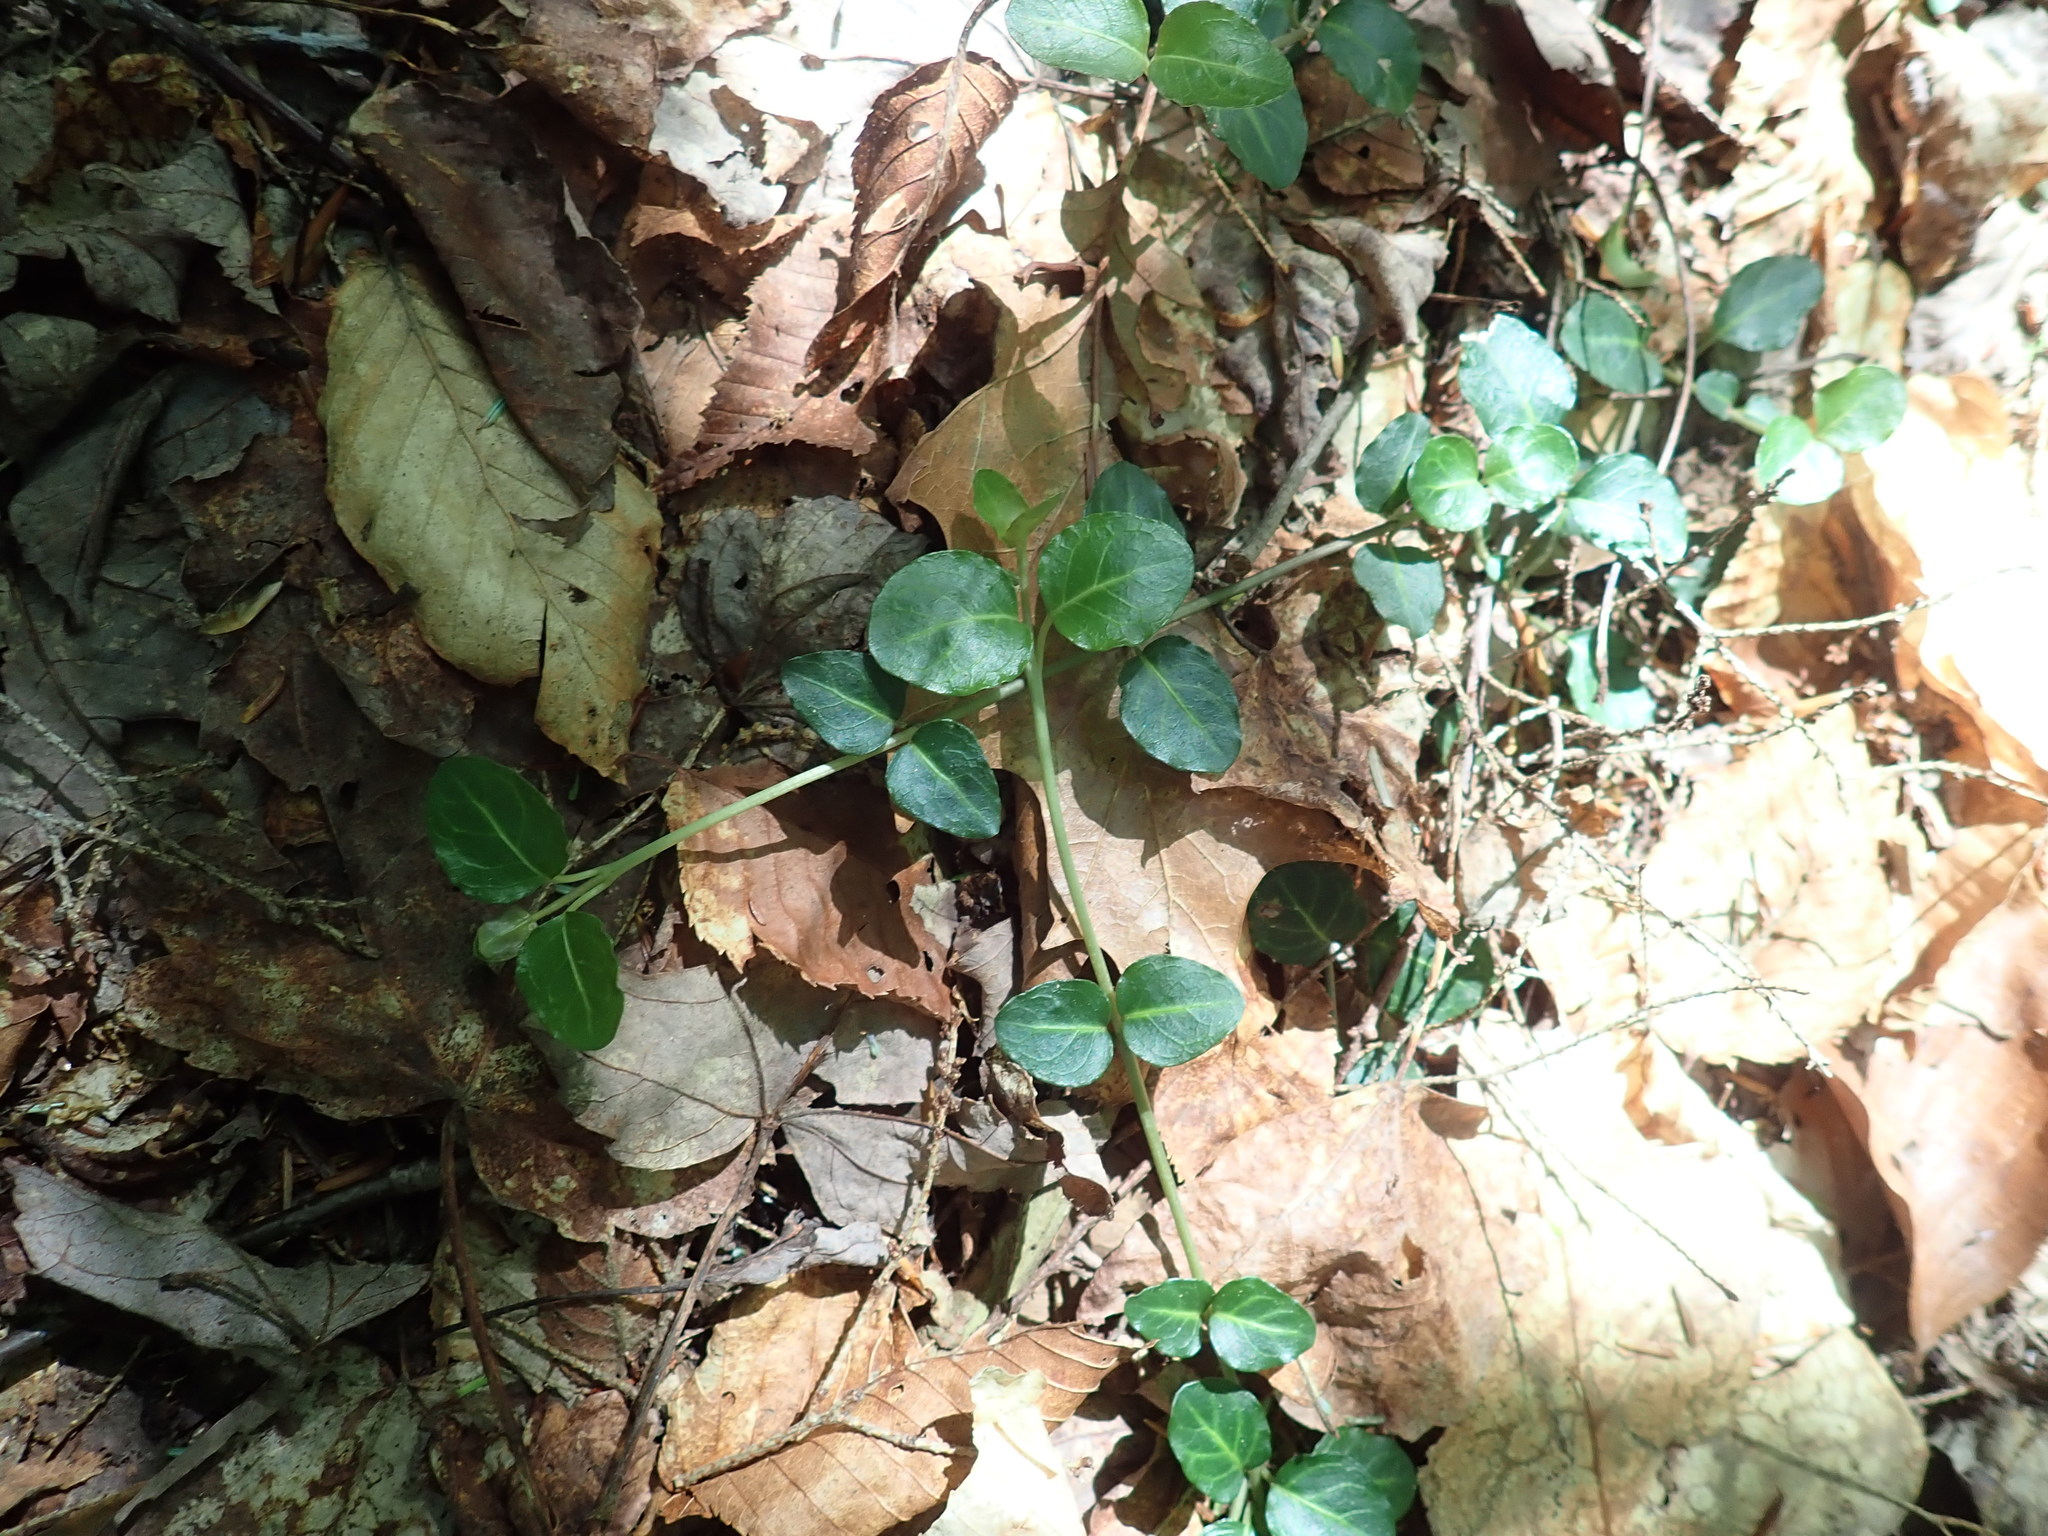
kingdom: Plantae
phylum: Tracheophyta
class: Magnoliopsida
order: Gentianales
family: Rubiaceae
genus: Mitchella
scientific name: Mitchella repens
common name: Partridge-berry
